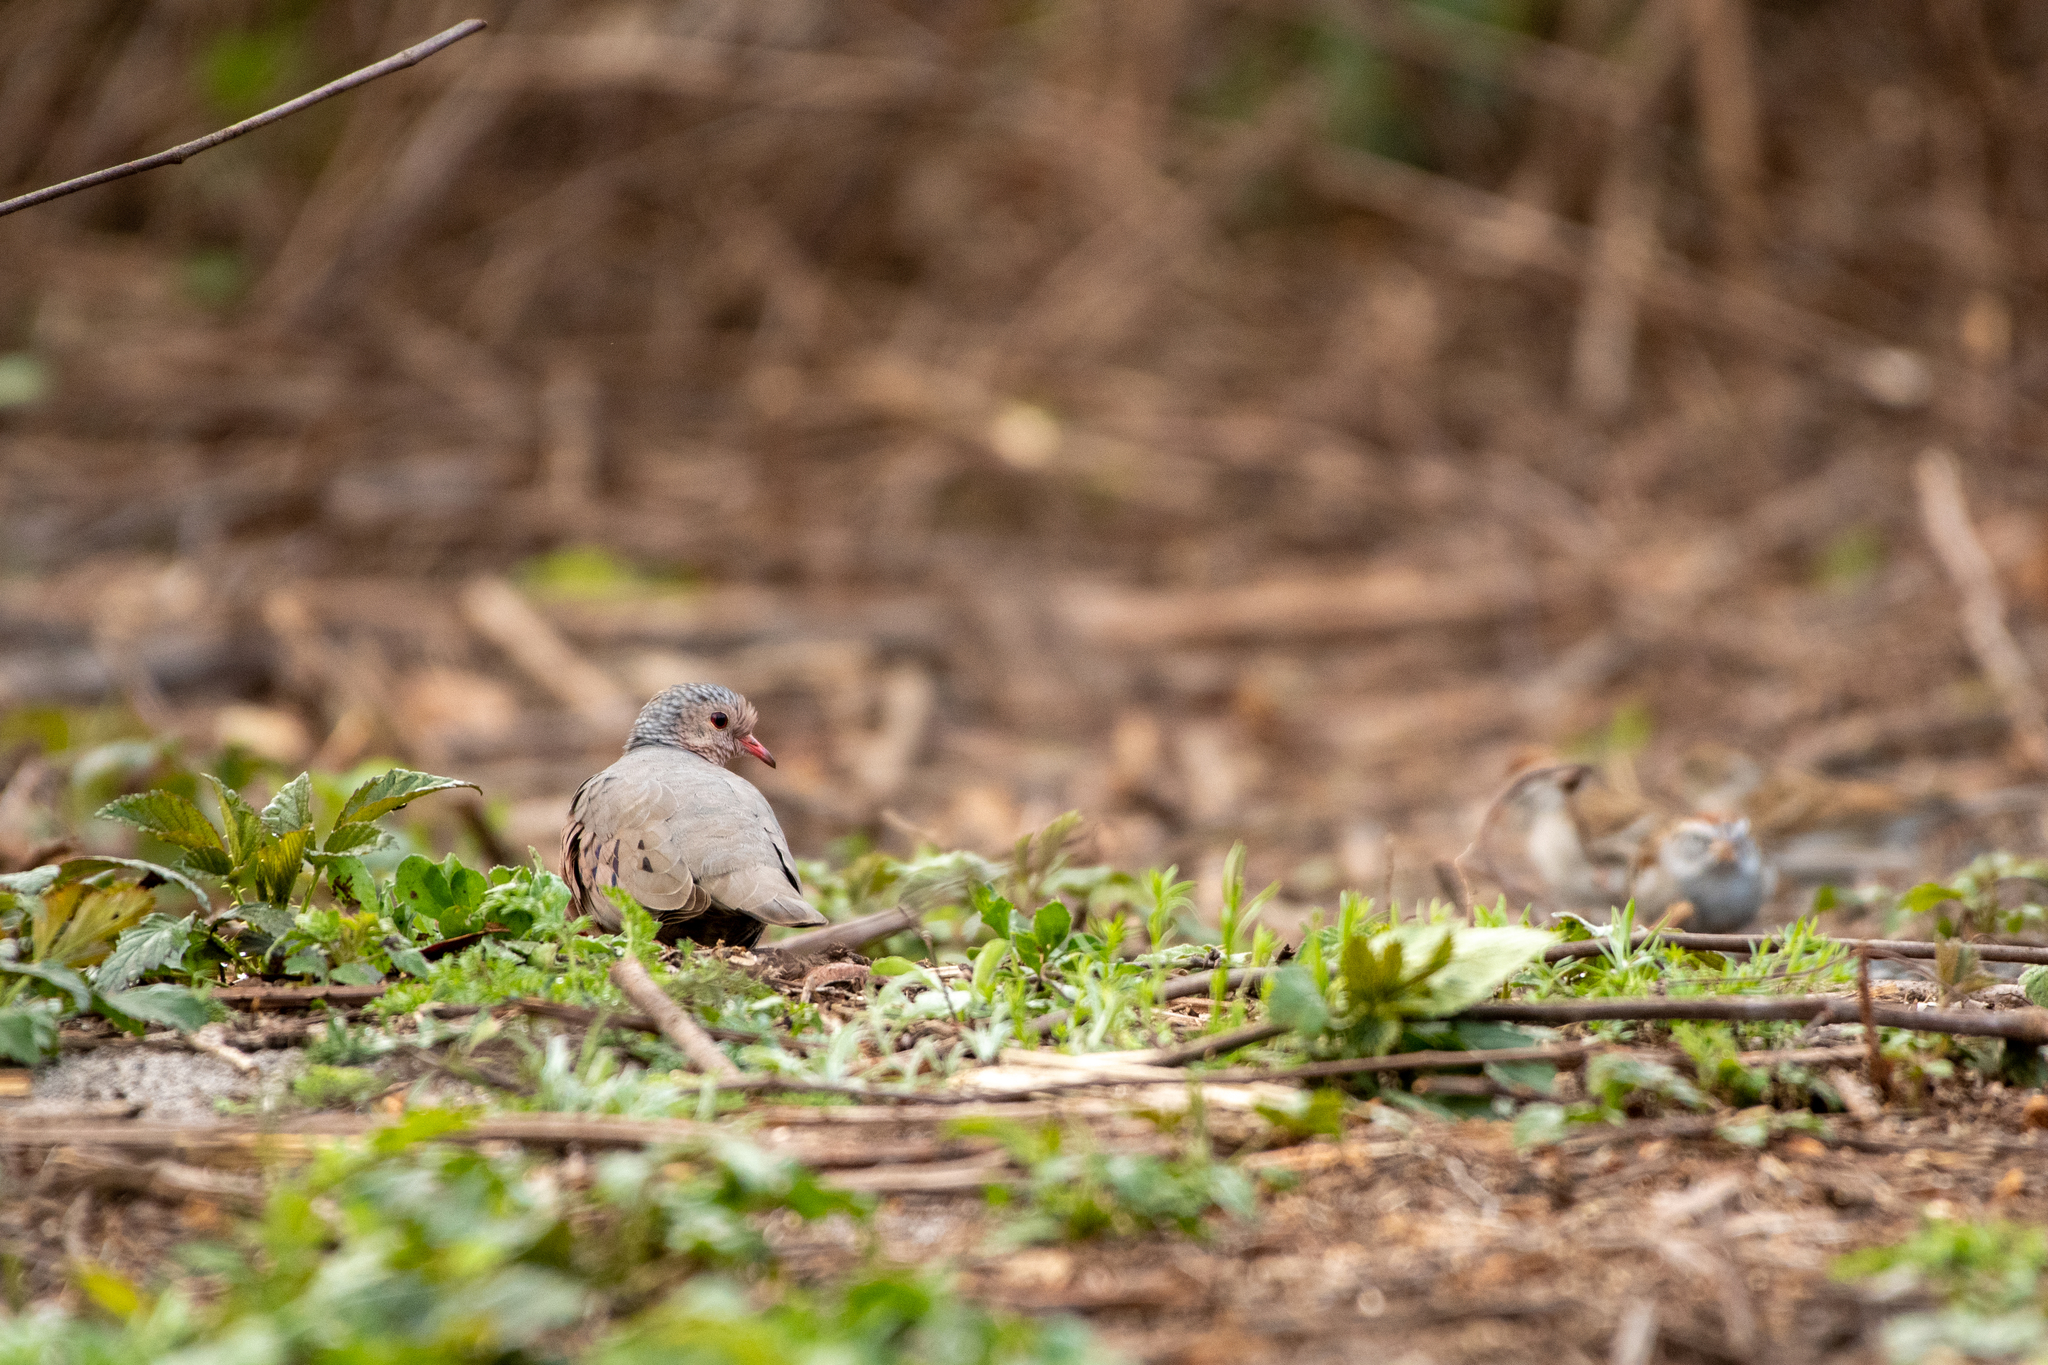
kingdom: Animalia
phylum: Chordata
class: Aves
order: Columbiformes
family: Columbidae
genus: Columbina
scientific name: Columbina passerina
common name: Common ground-dove
